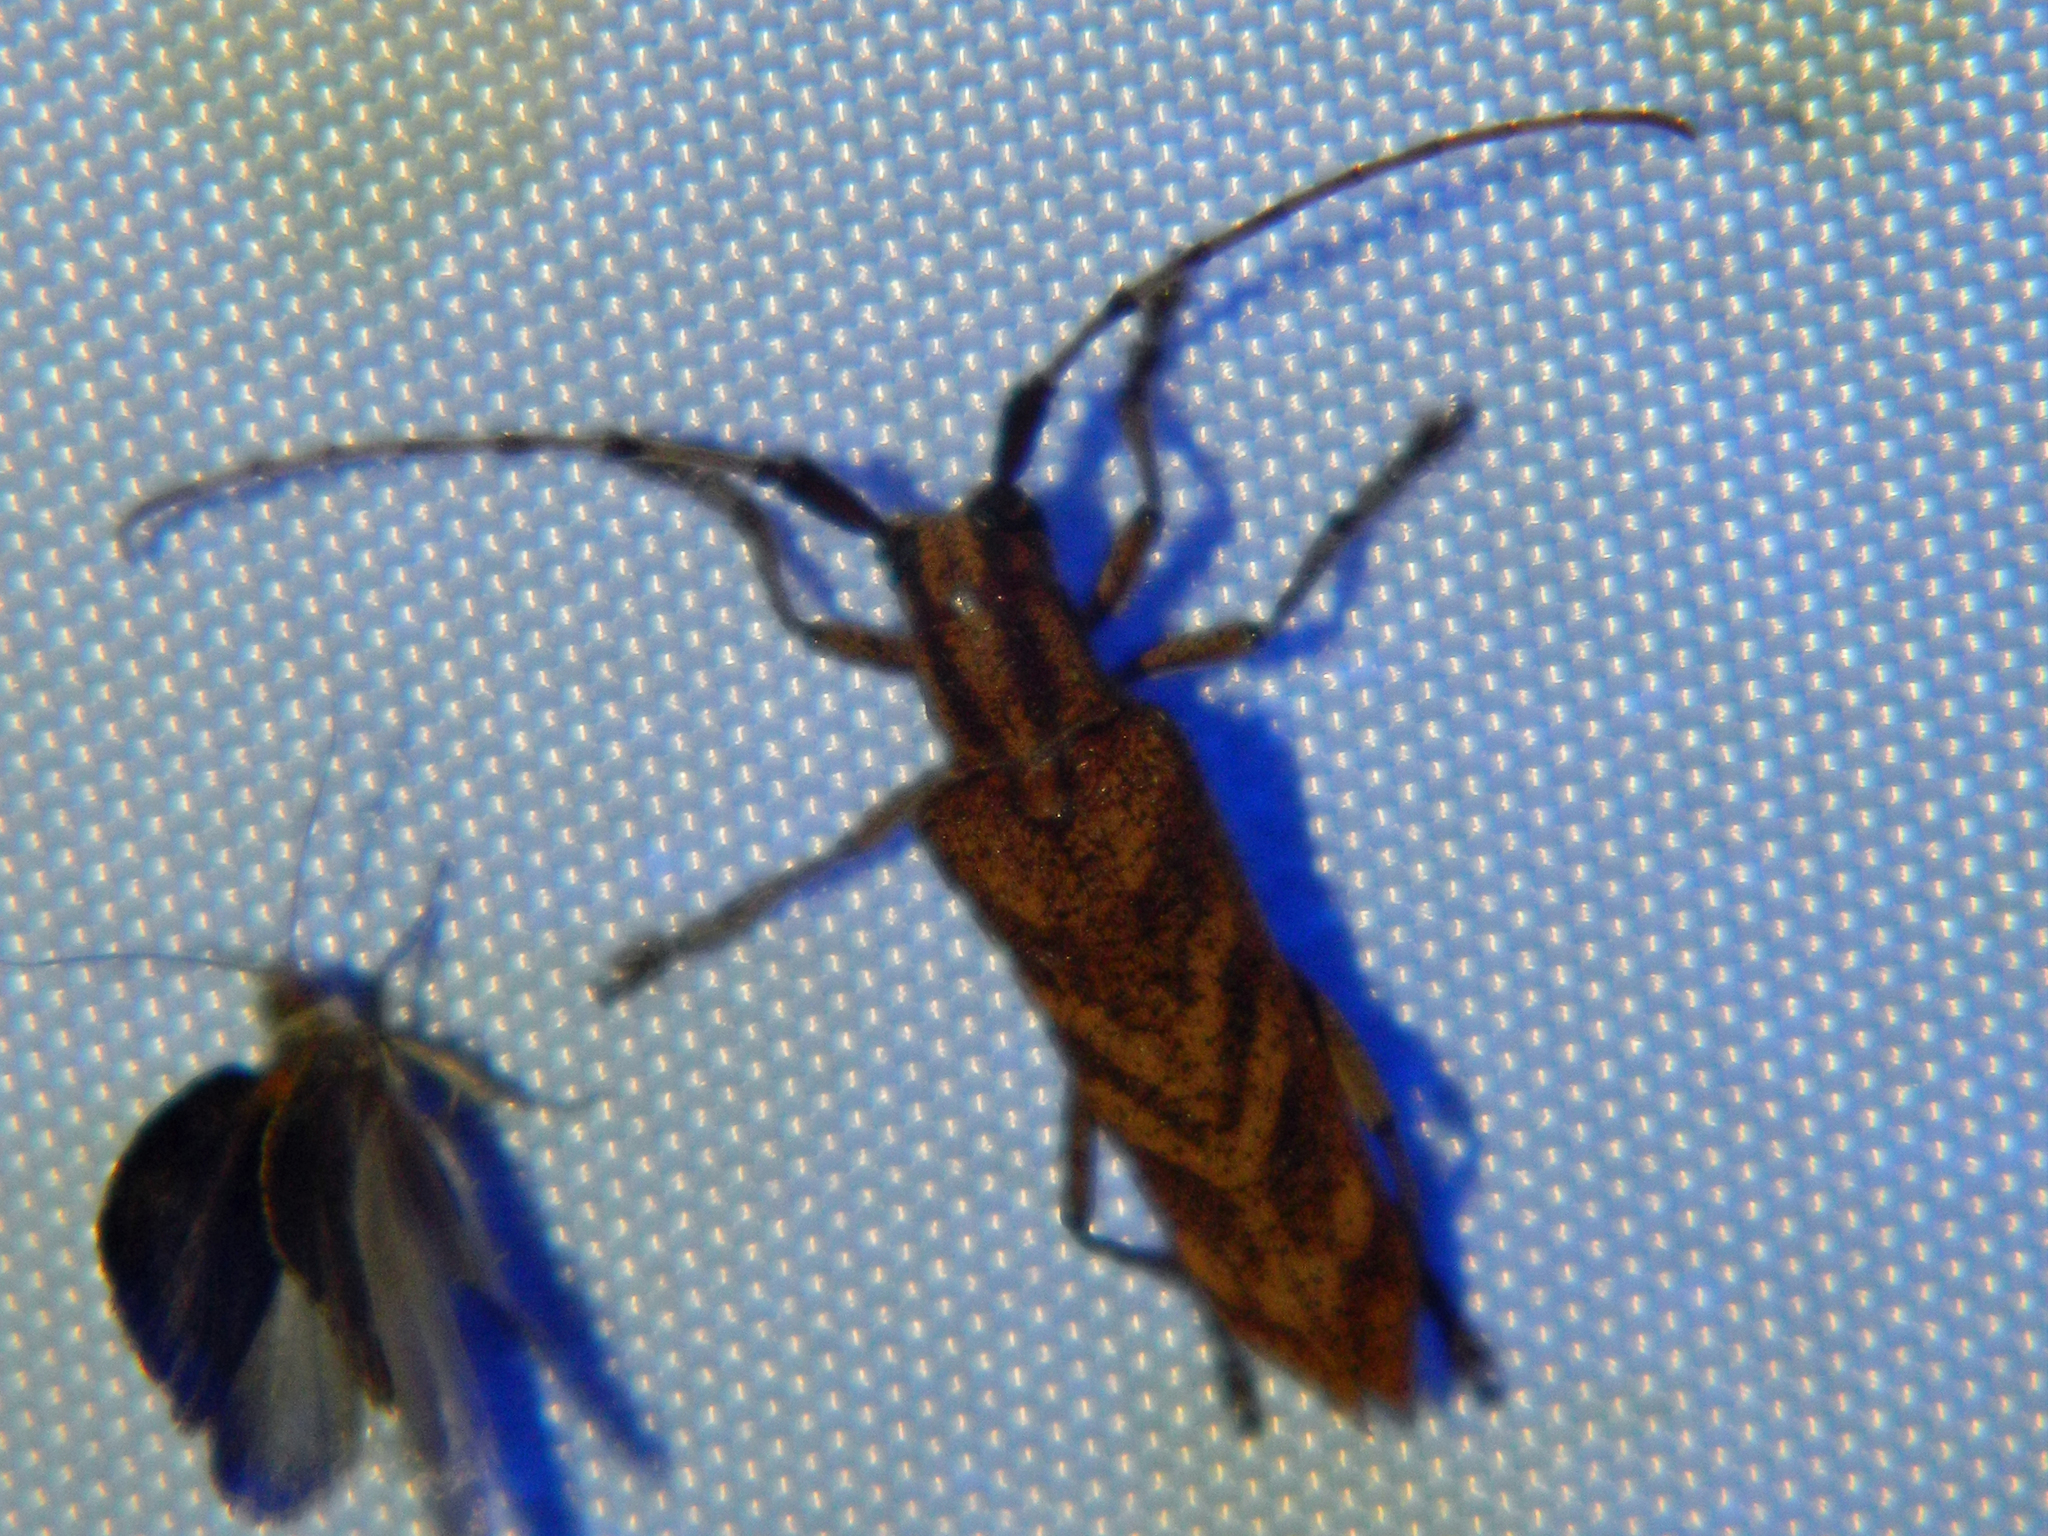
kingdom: Animalia
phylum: Arthropoda
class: Insecta
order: Coleoptera
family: Cerambycidae
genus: Saperda
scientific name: Saperda obliqua
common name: Alder borer
